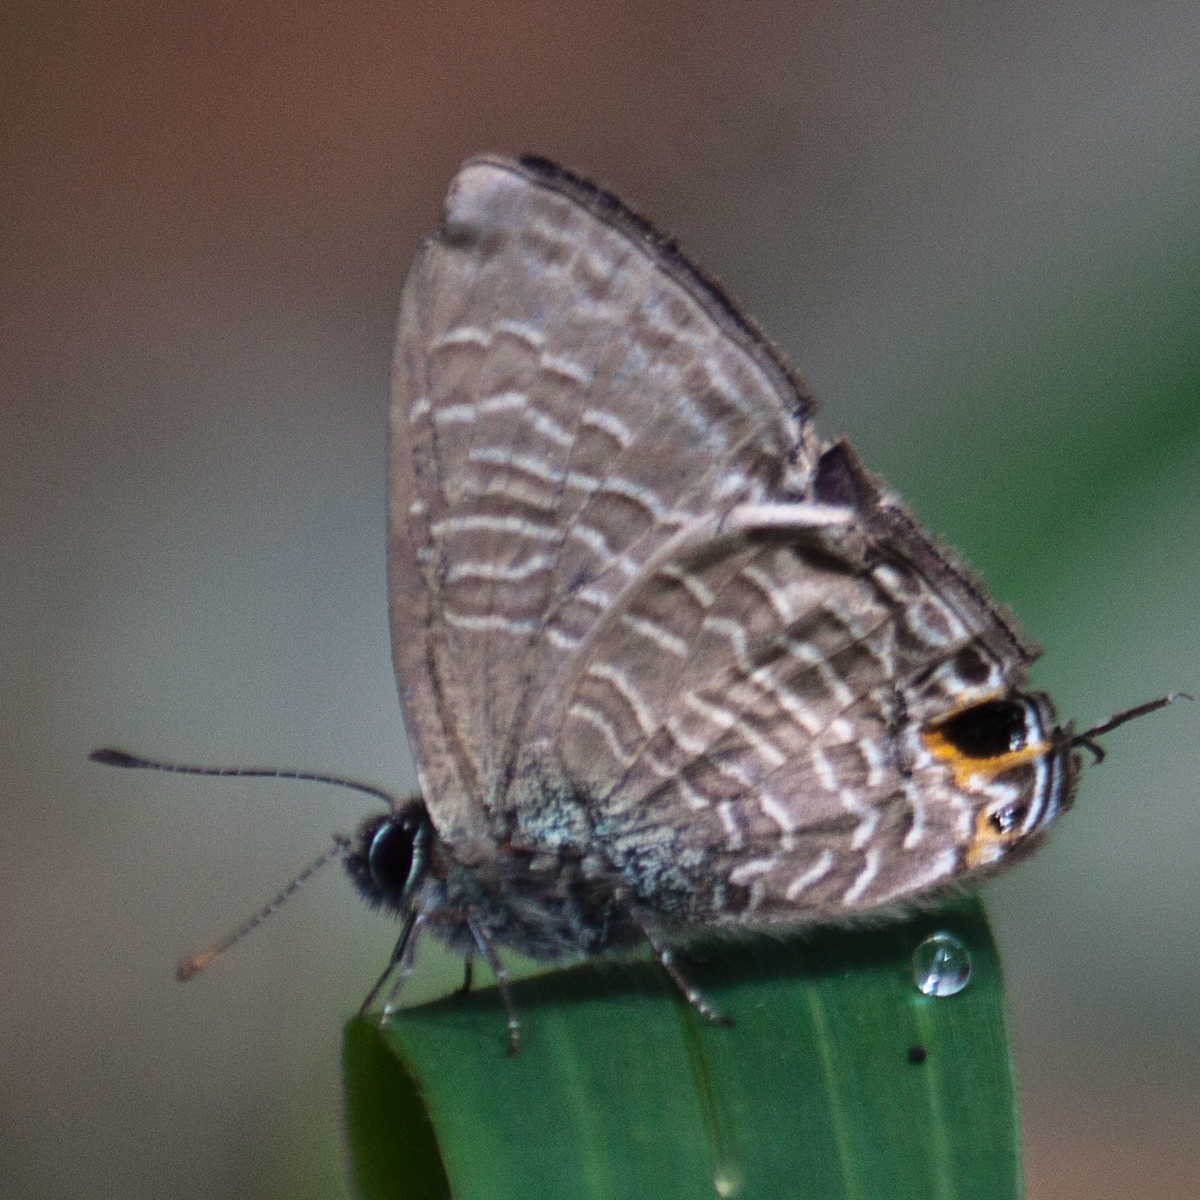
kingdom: Animalia
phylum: Arthropoda
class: Insecta
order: Lepidoptera
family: Lycaenidae
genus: Ionolyce
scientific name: Ionolyce helicon
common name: Pointed line blue
